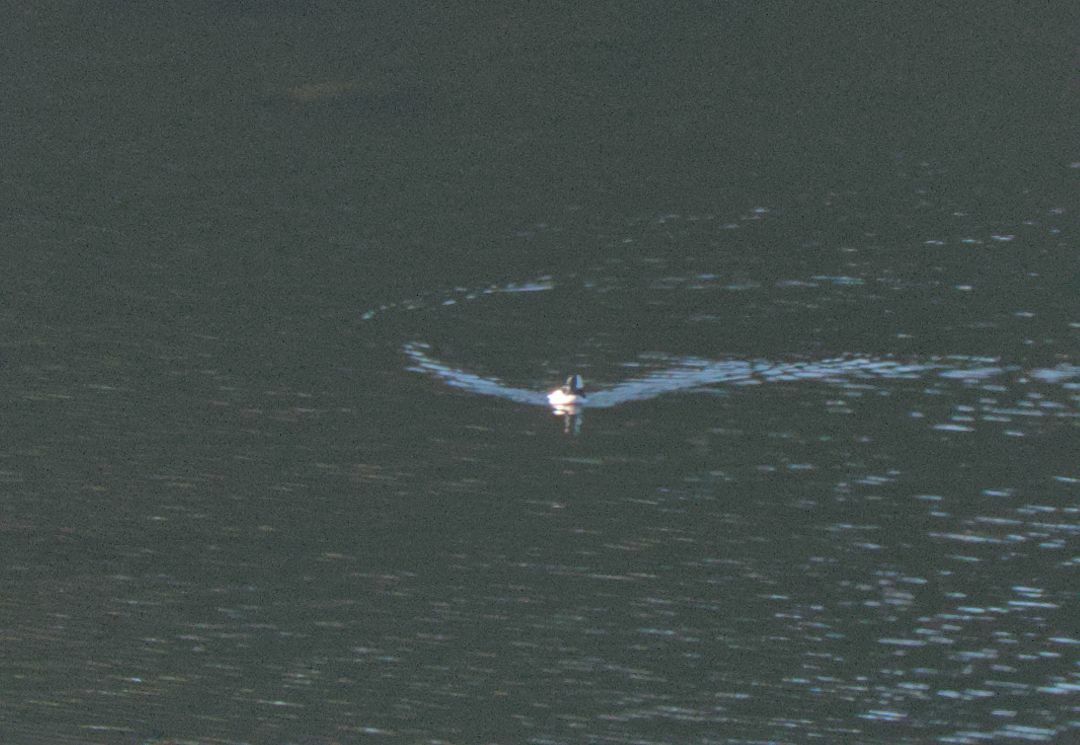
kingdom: Animalia
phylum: Chordata
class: Aves
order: Anseriformes
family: Anatidae
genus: Bucephala
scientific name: Bucephala albeola
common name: Bufflehead
